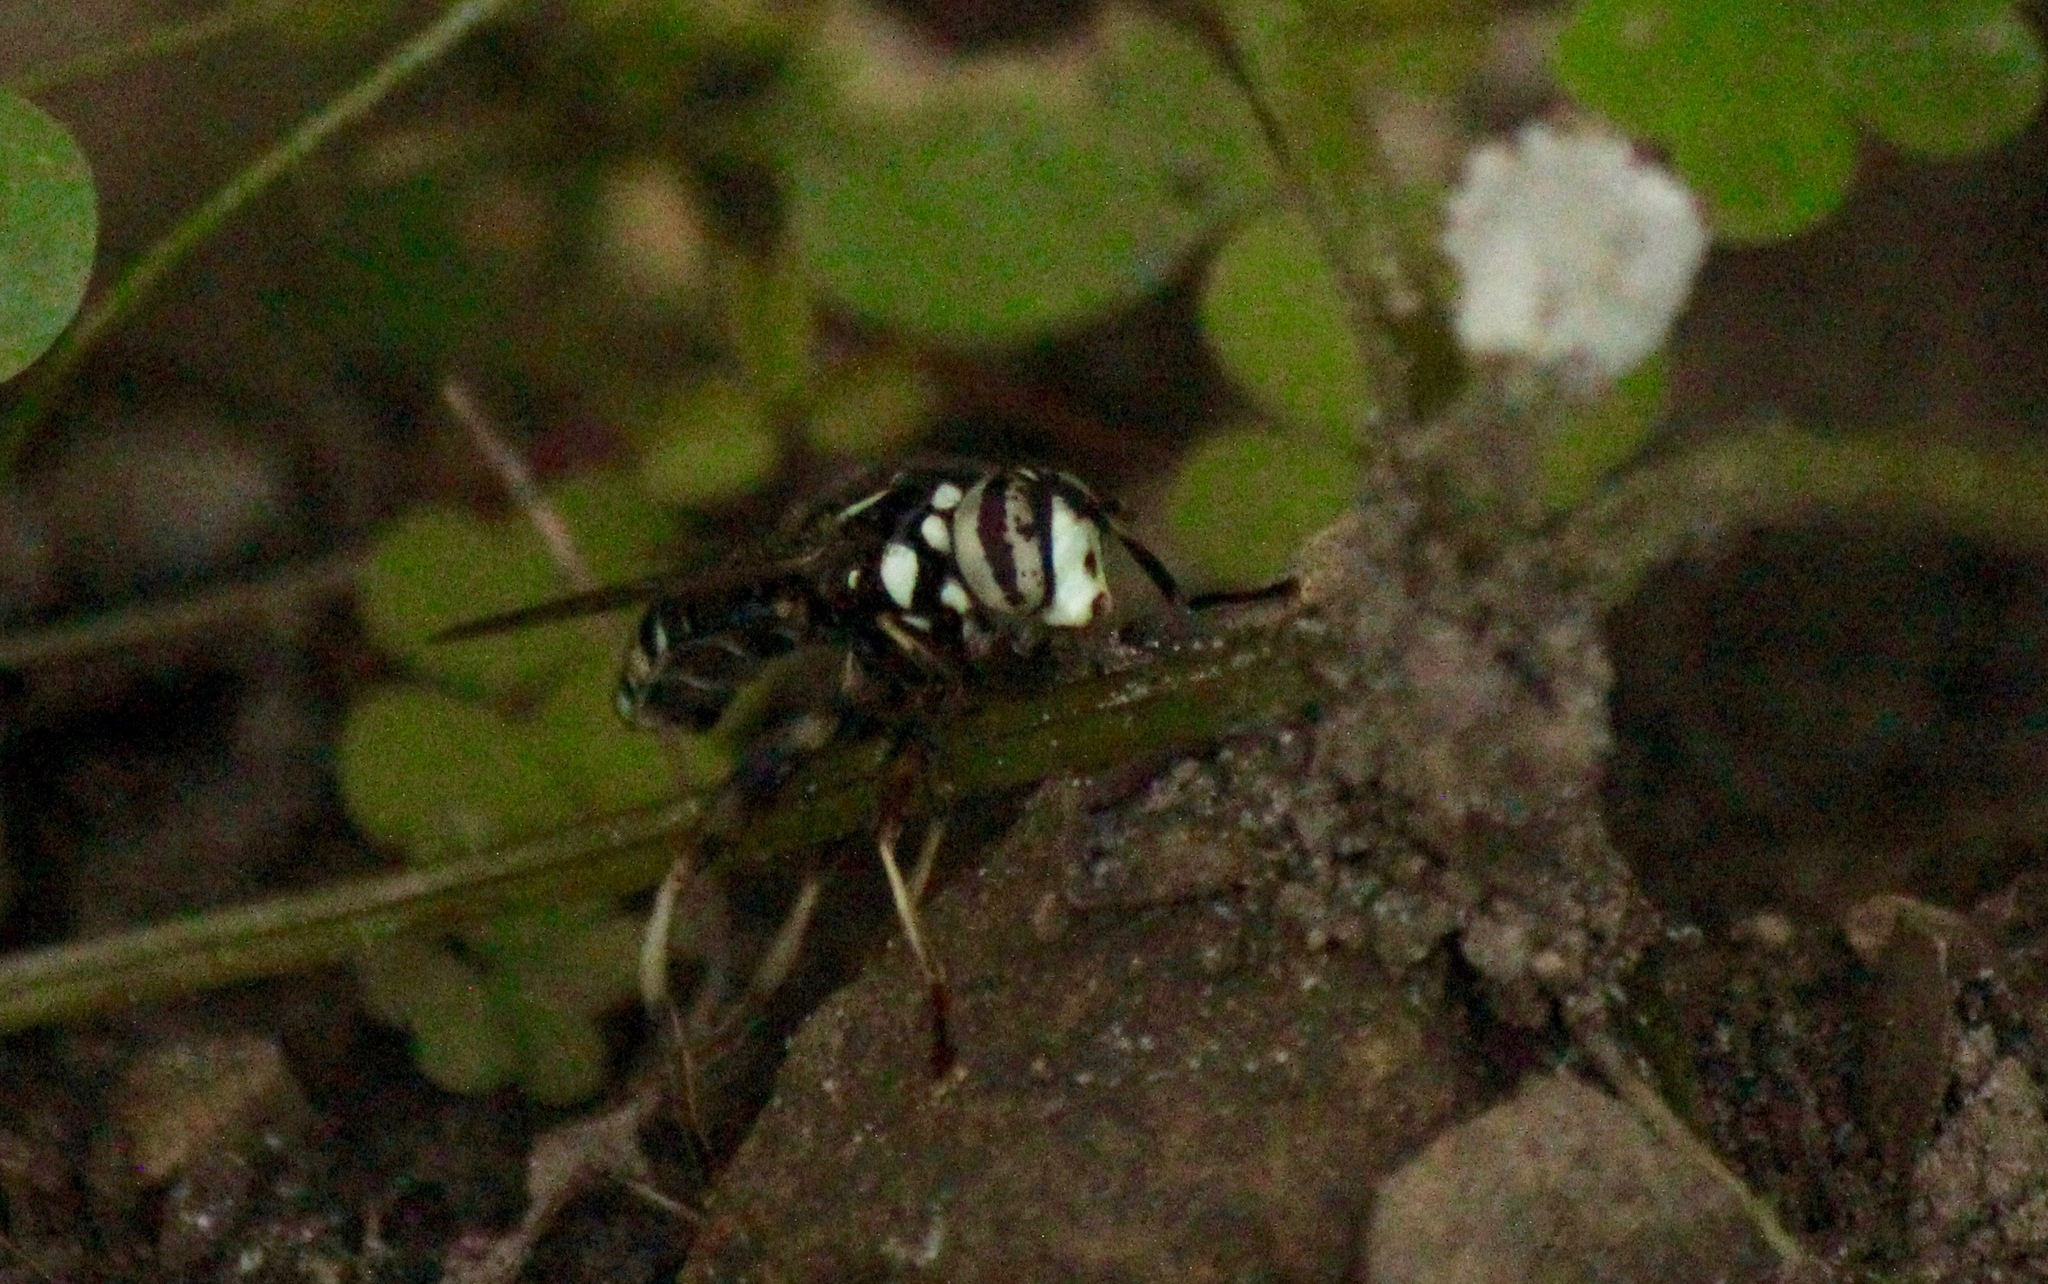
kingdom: Animalia
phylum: Arthropoda
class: Insecta
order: Diptera
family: Syrphidae
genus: Spilomyia
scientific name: Spilomyia fusca
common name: Bald-faced hornet fly
